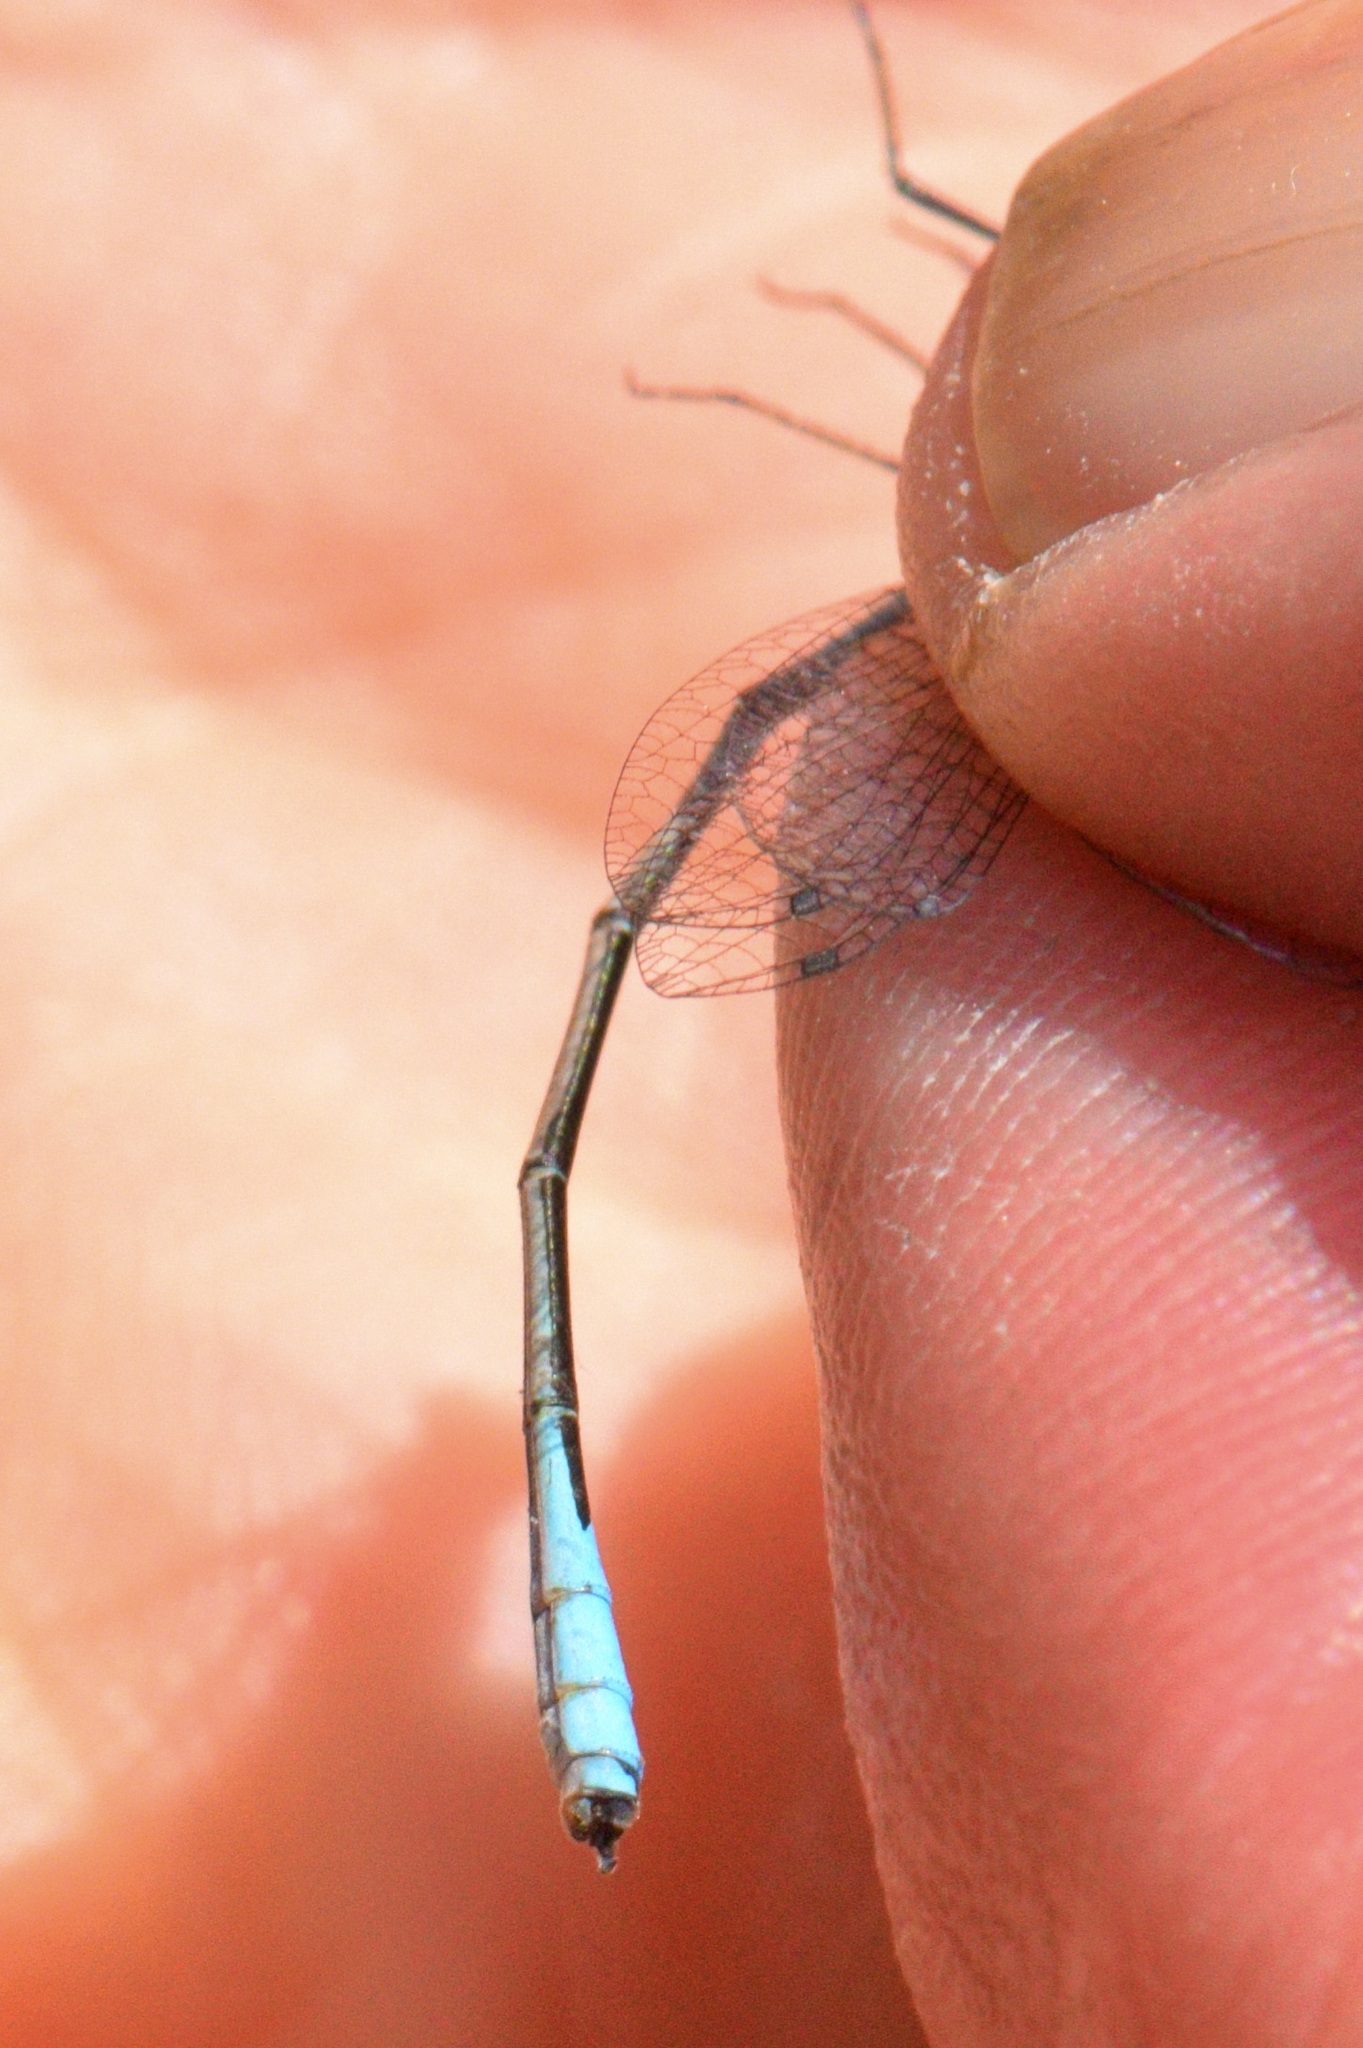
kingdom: Animalia
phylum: Arthropoda
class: Insecta
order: Odonata
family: Coenagrionidae
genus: Enallagma
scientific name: Enallagma aspersum
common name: Azure bluet
